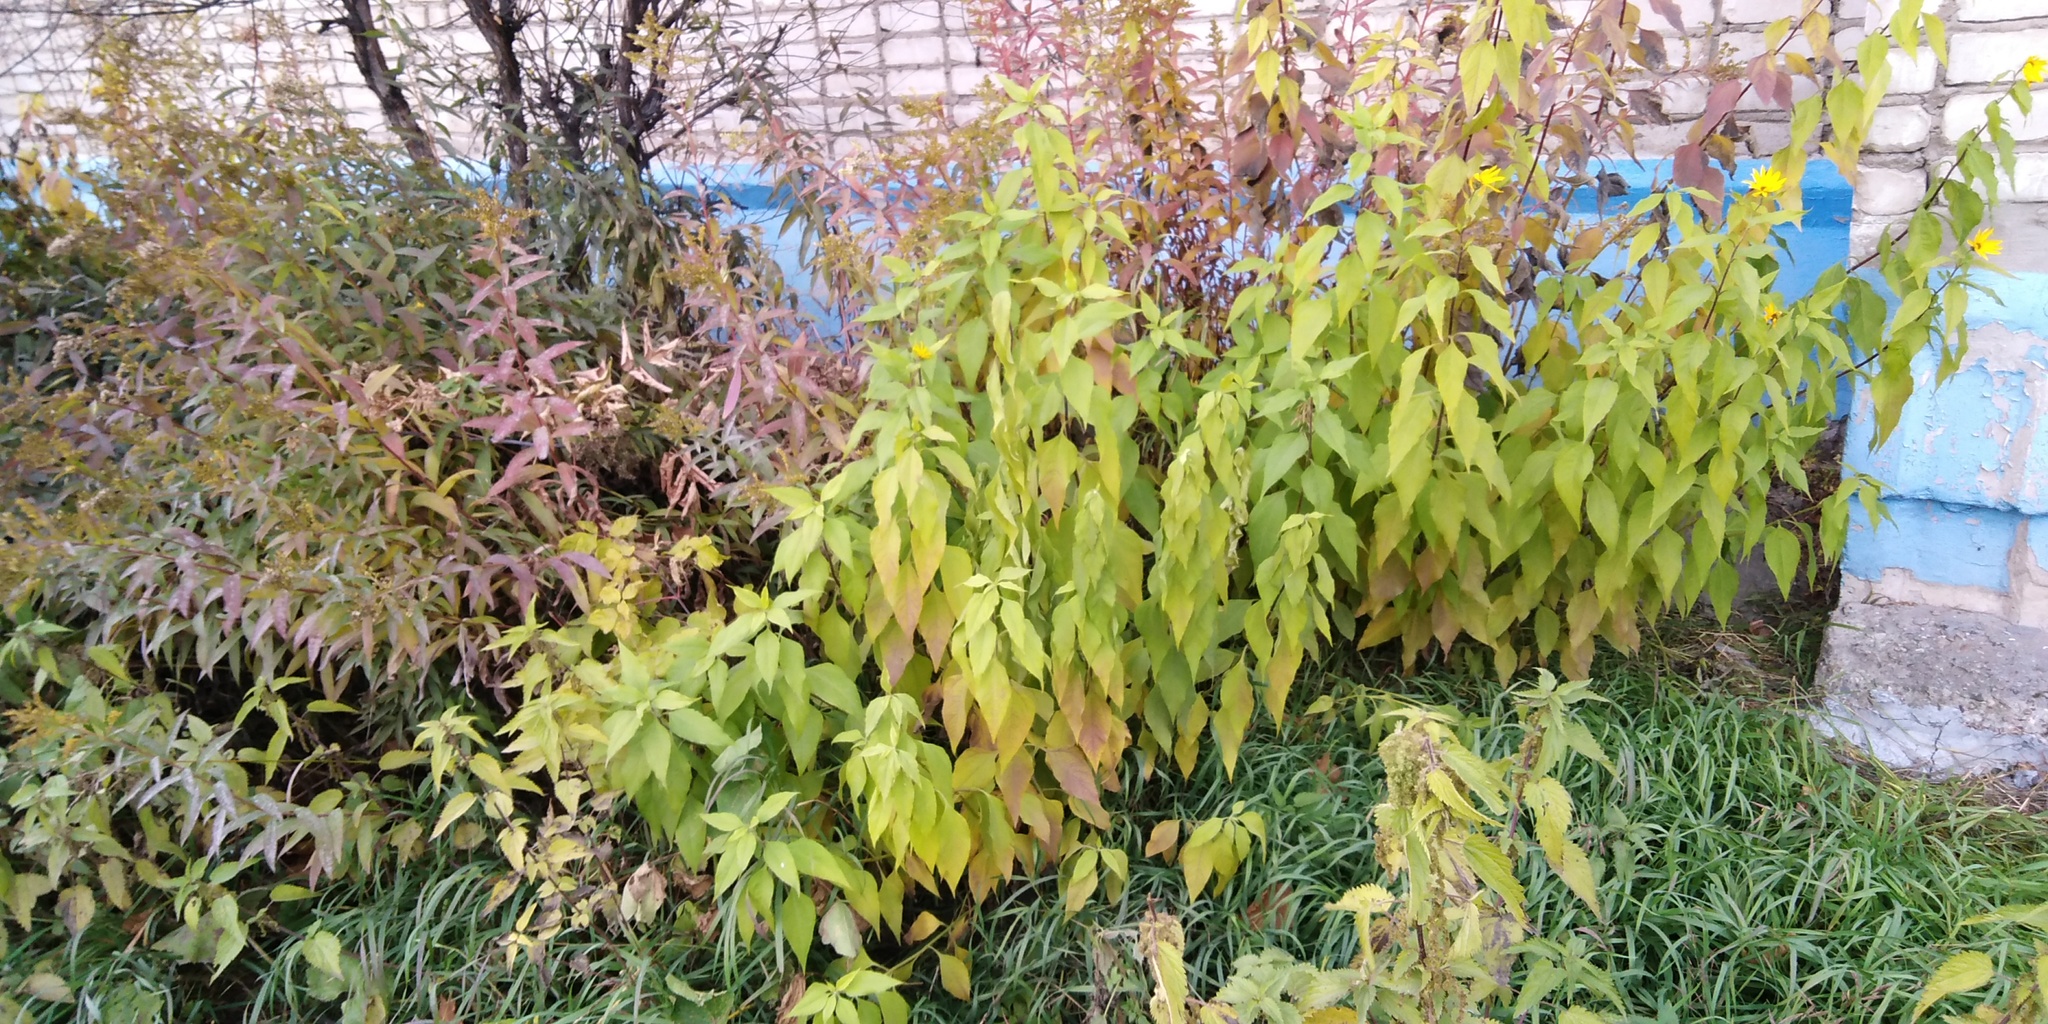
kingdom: Plantae
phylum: Tracheophyta
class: Magnoliopsida
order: Asterales
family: Asteraceae
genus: Helianthus
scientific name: Helianthus tuberosus
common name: Jerusalem artichoke
